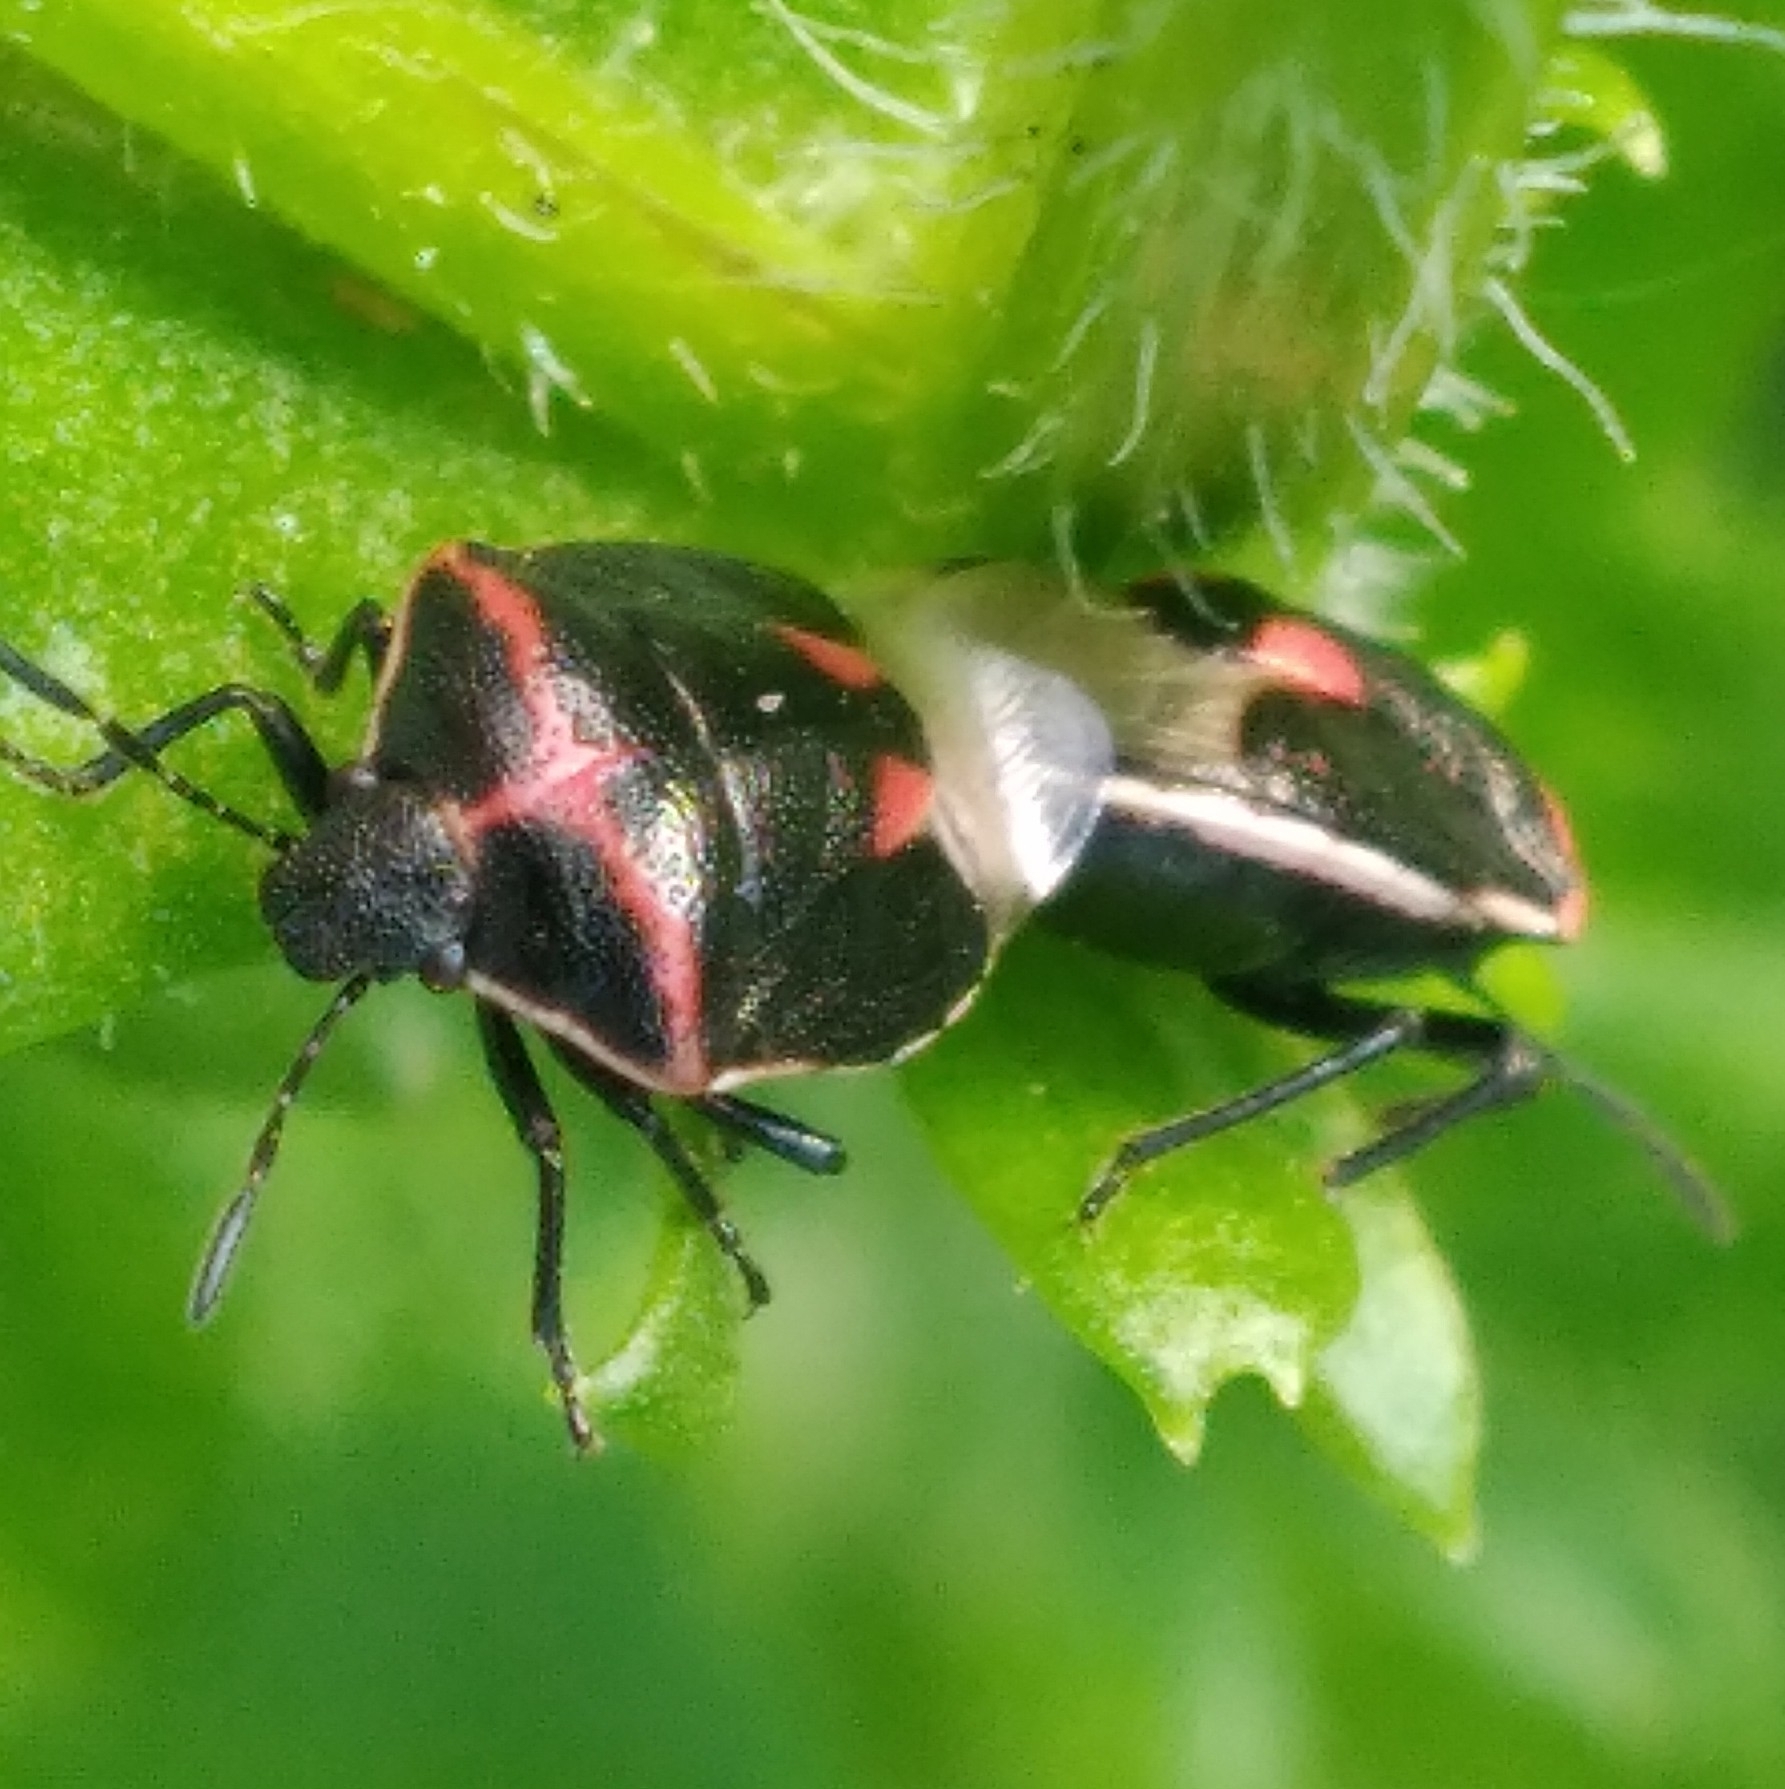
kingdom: Animalia
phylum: Arthropoda
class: Insecta
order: Hemiptera
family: Pentatomidae
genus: Cosmopepla
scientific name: Cosmopepla lintneriana
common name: Twice-stabbed stink bug
